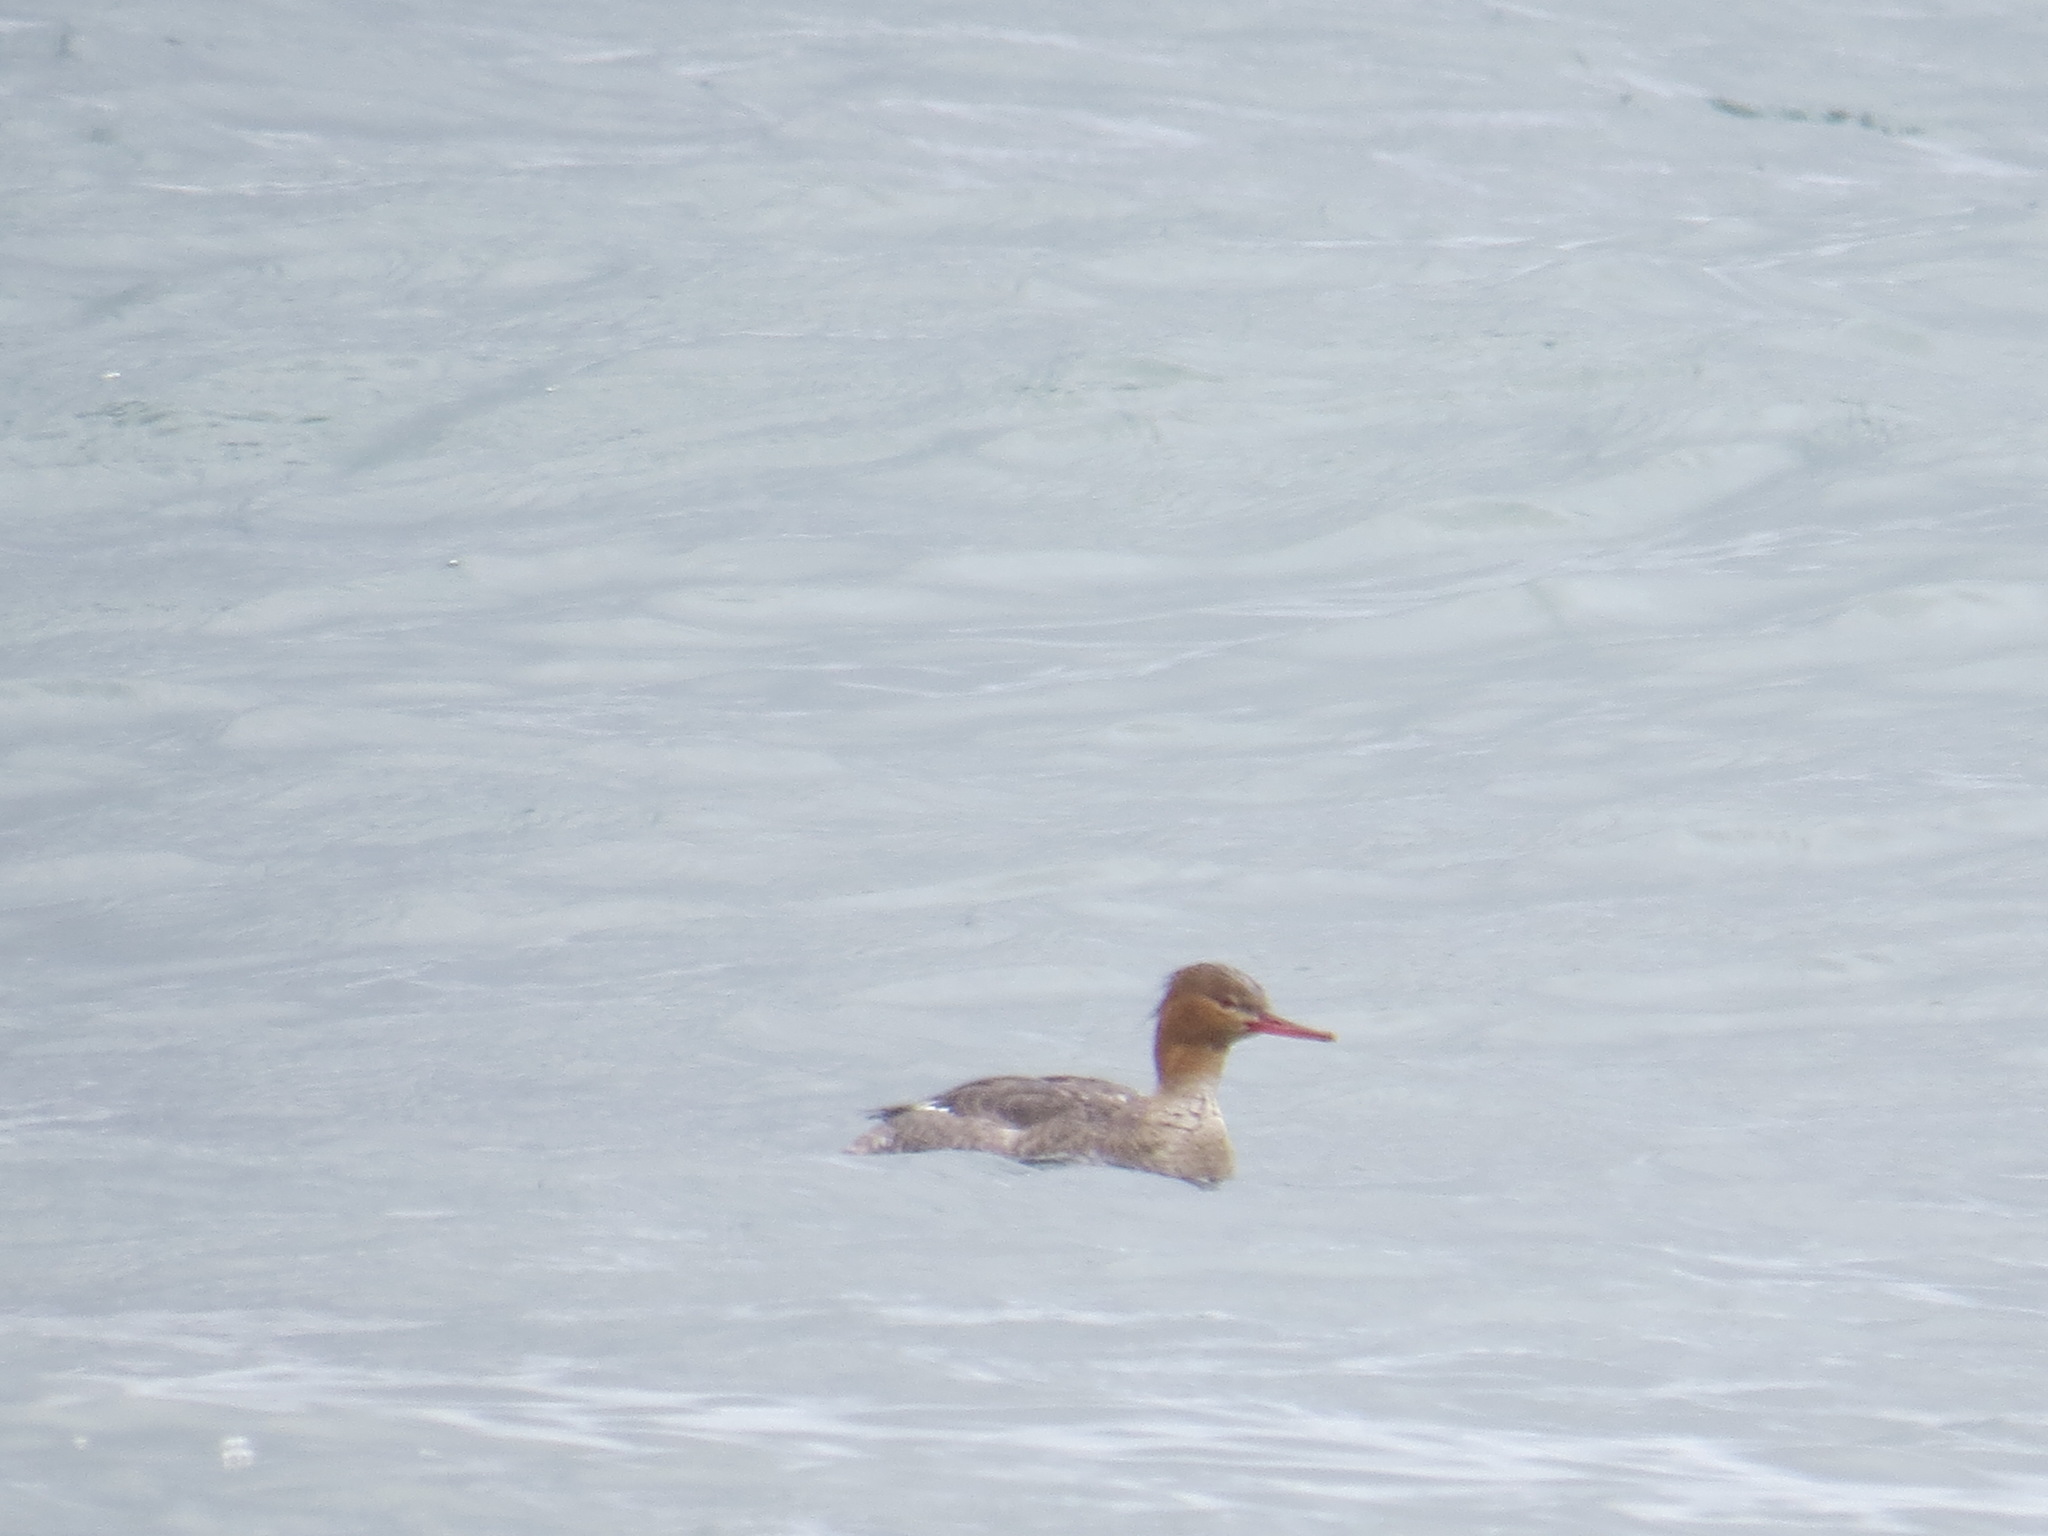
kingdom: Animalia
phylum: Chordata
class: Aves
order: Anseriformes
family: Anatidae
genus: Mergus
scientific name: Mergus serrator
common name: Red-breasted merganser
